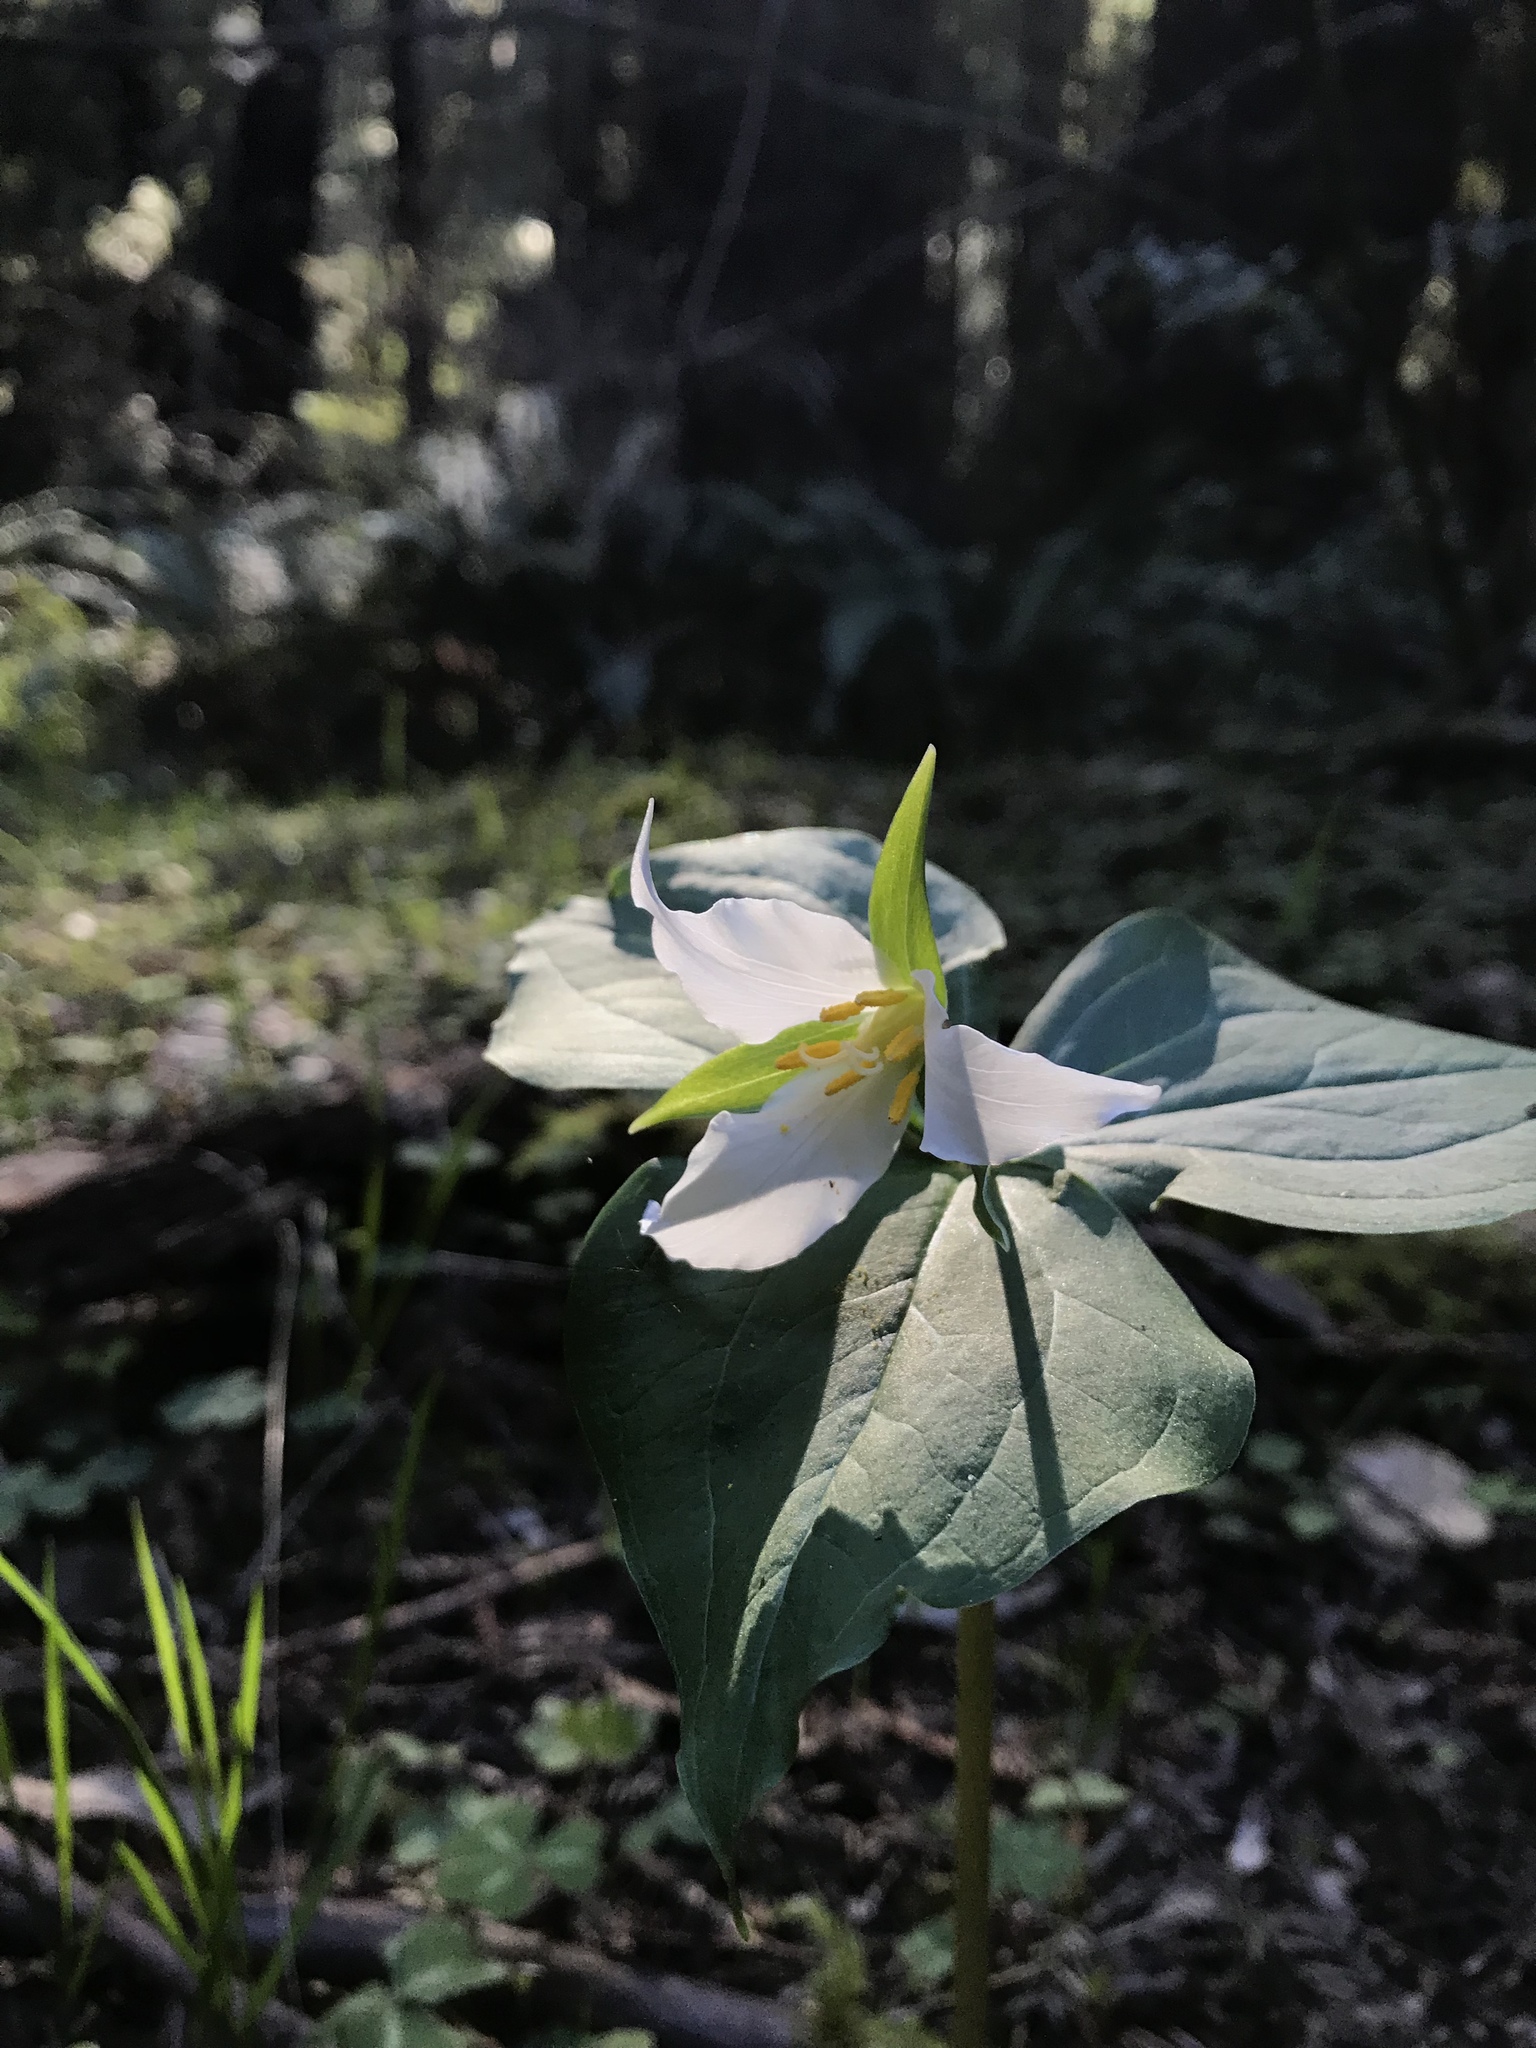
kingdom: Plantae
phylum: Tracheophyta
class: Liliopsida
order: Liliales
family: Melanthiaceae
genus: Trillium
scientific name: Trillium ovatum
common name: Pacific trillium
